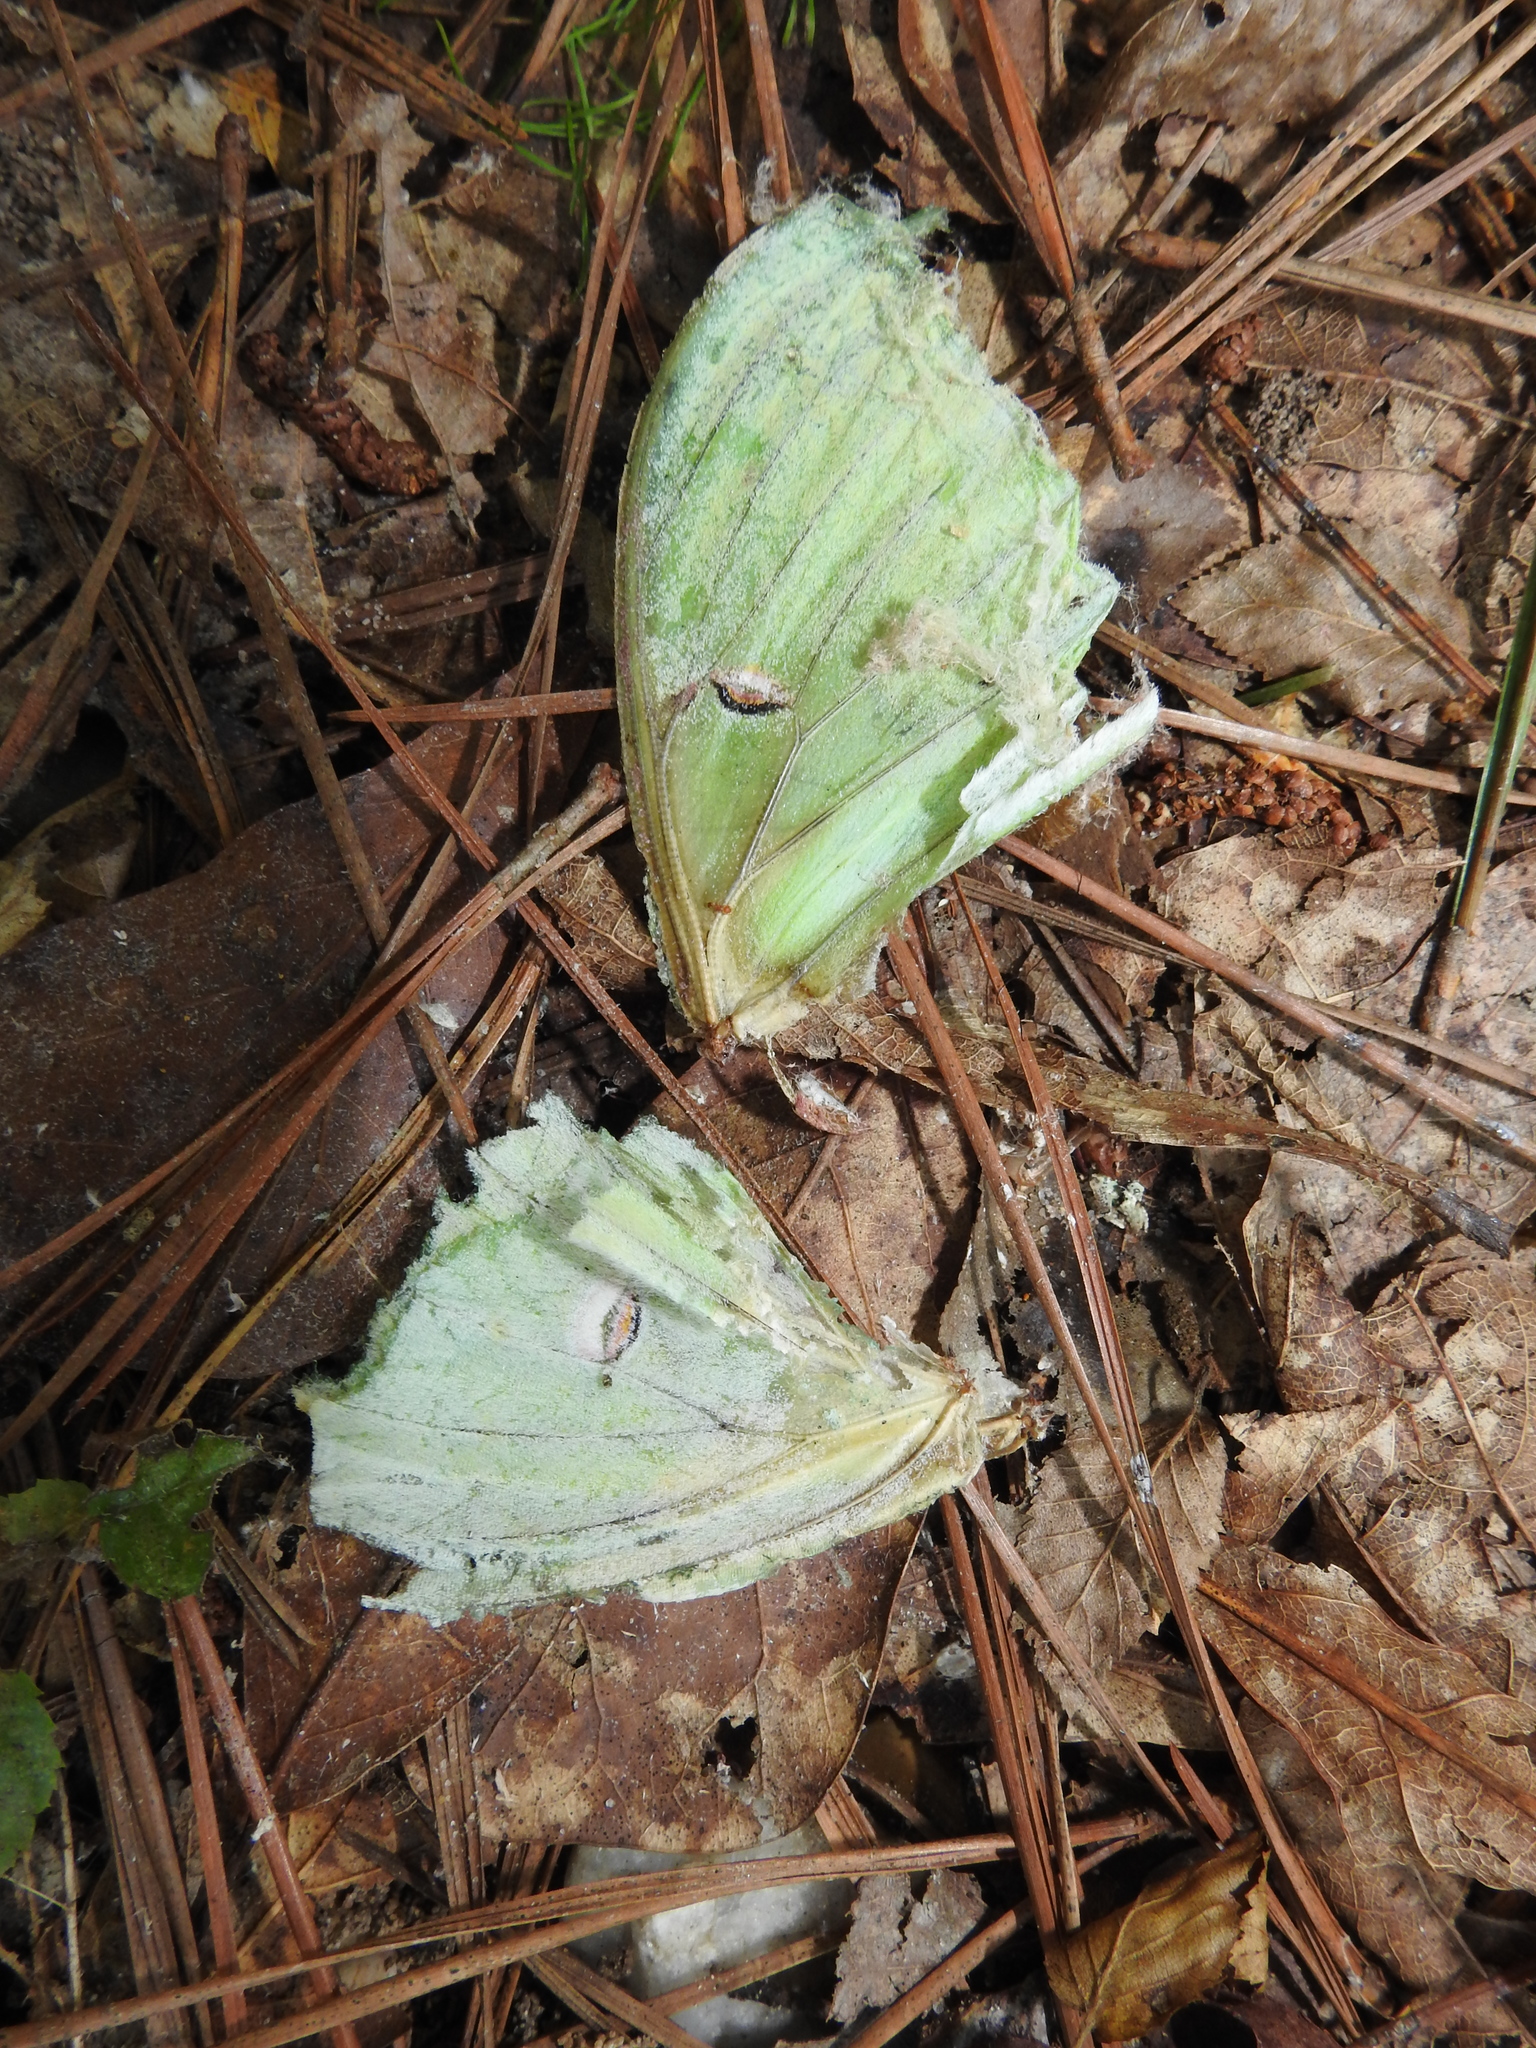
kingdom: Animalia
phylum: Arthropoda
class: Insecta
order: Lepidoptera
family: Saturniidae
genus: Actias
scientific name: Actias luna
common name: Luna moth
